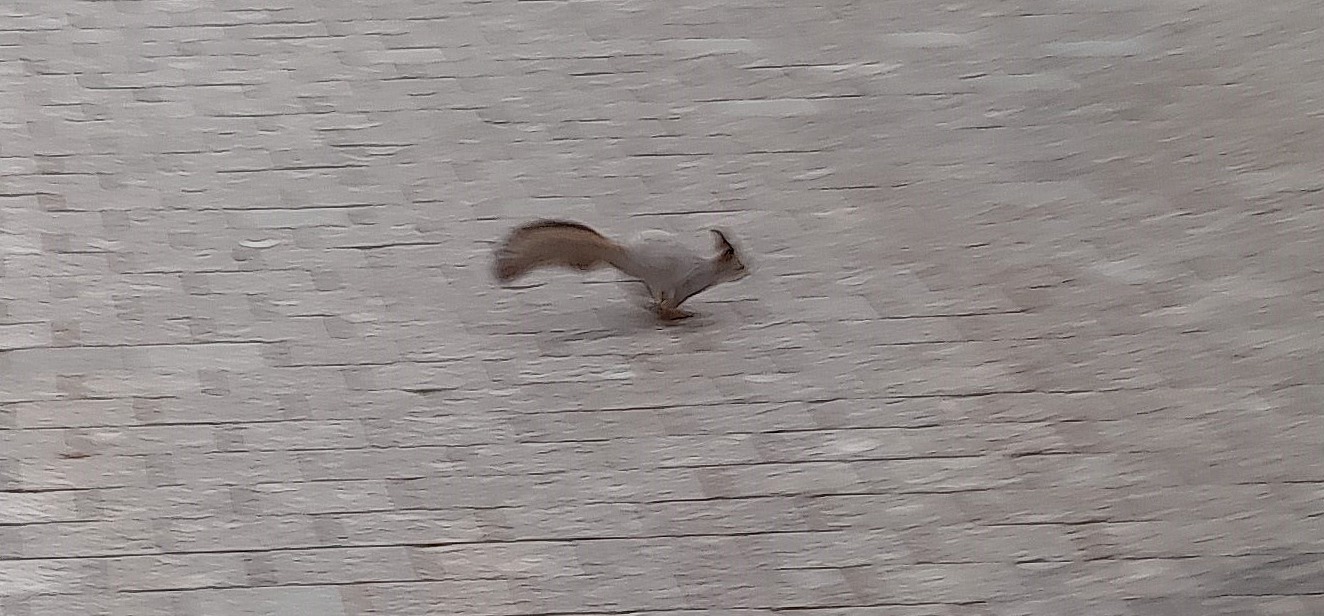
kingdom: Animalia
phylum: Chordata
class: Mammalia
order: Rodentia
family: Sciuridae
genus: Sciurus
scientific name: Sciurus vulgaris
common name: Eurasian red squirrel
